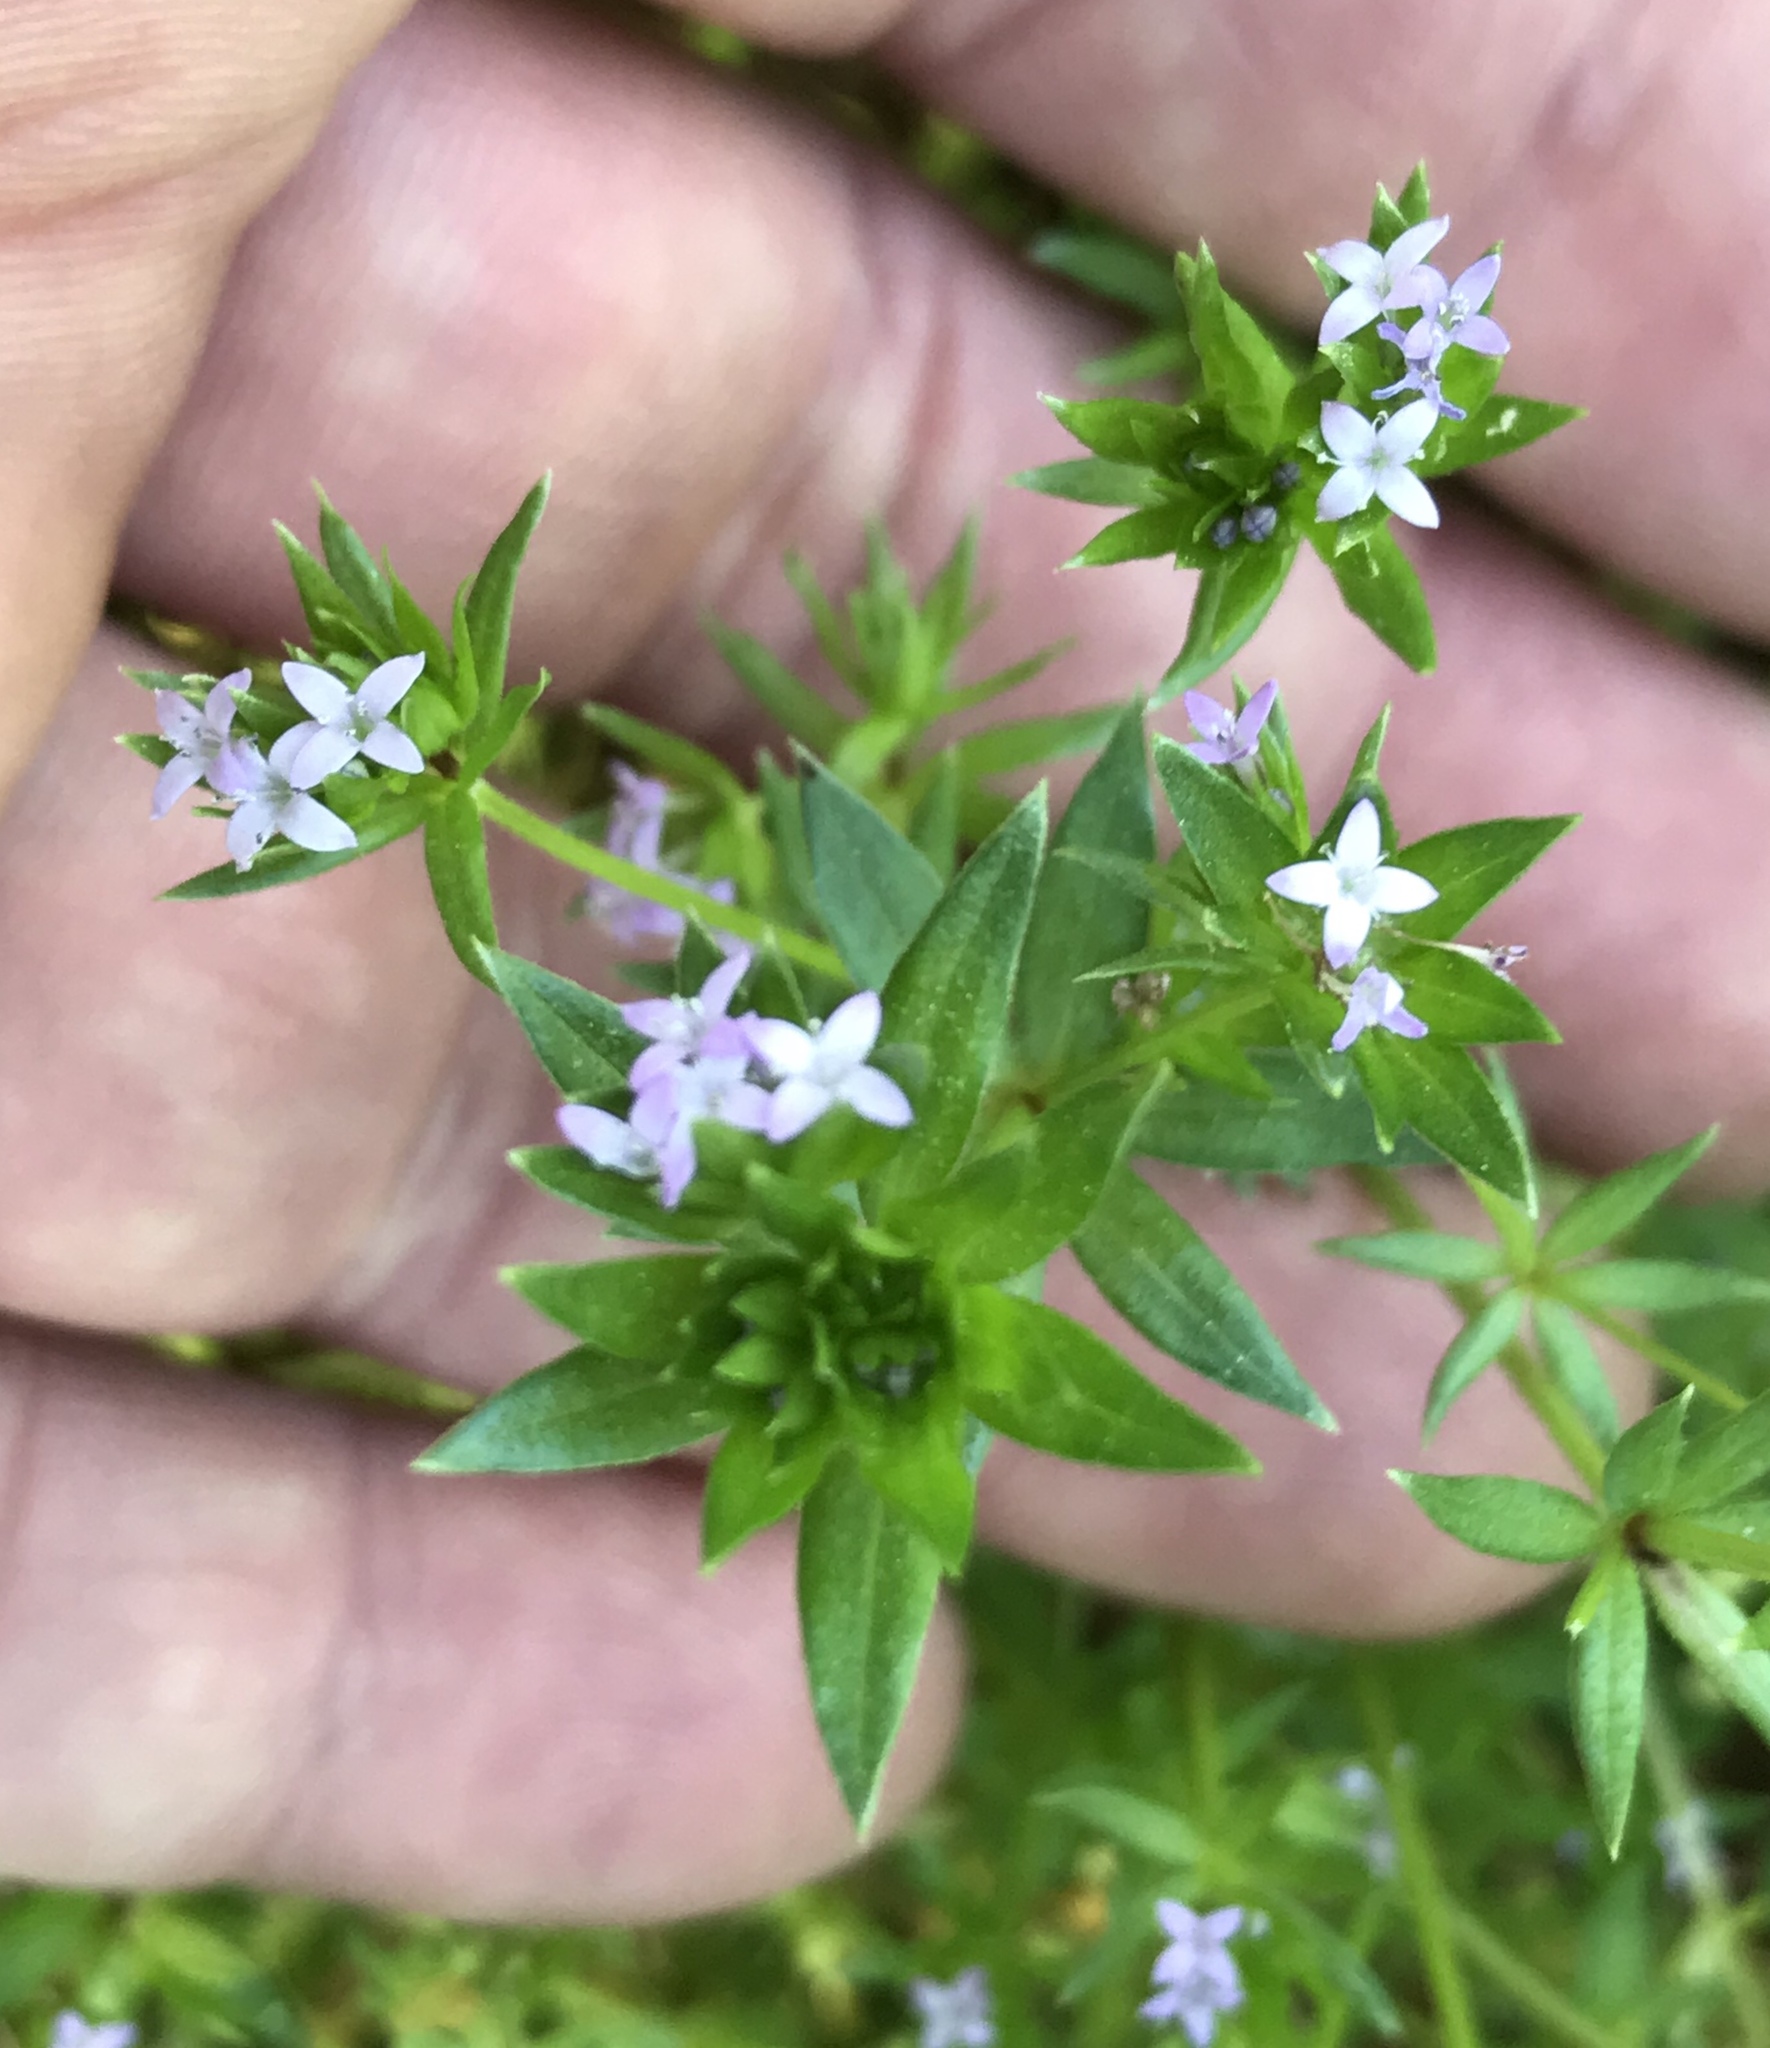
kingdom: Plantae
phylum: Tracheophyta
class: Magnoliopsida
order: Gentianales
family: Rubiaceae
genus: Sherardia
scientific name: Sherardia arvensis
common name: Field madder
